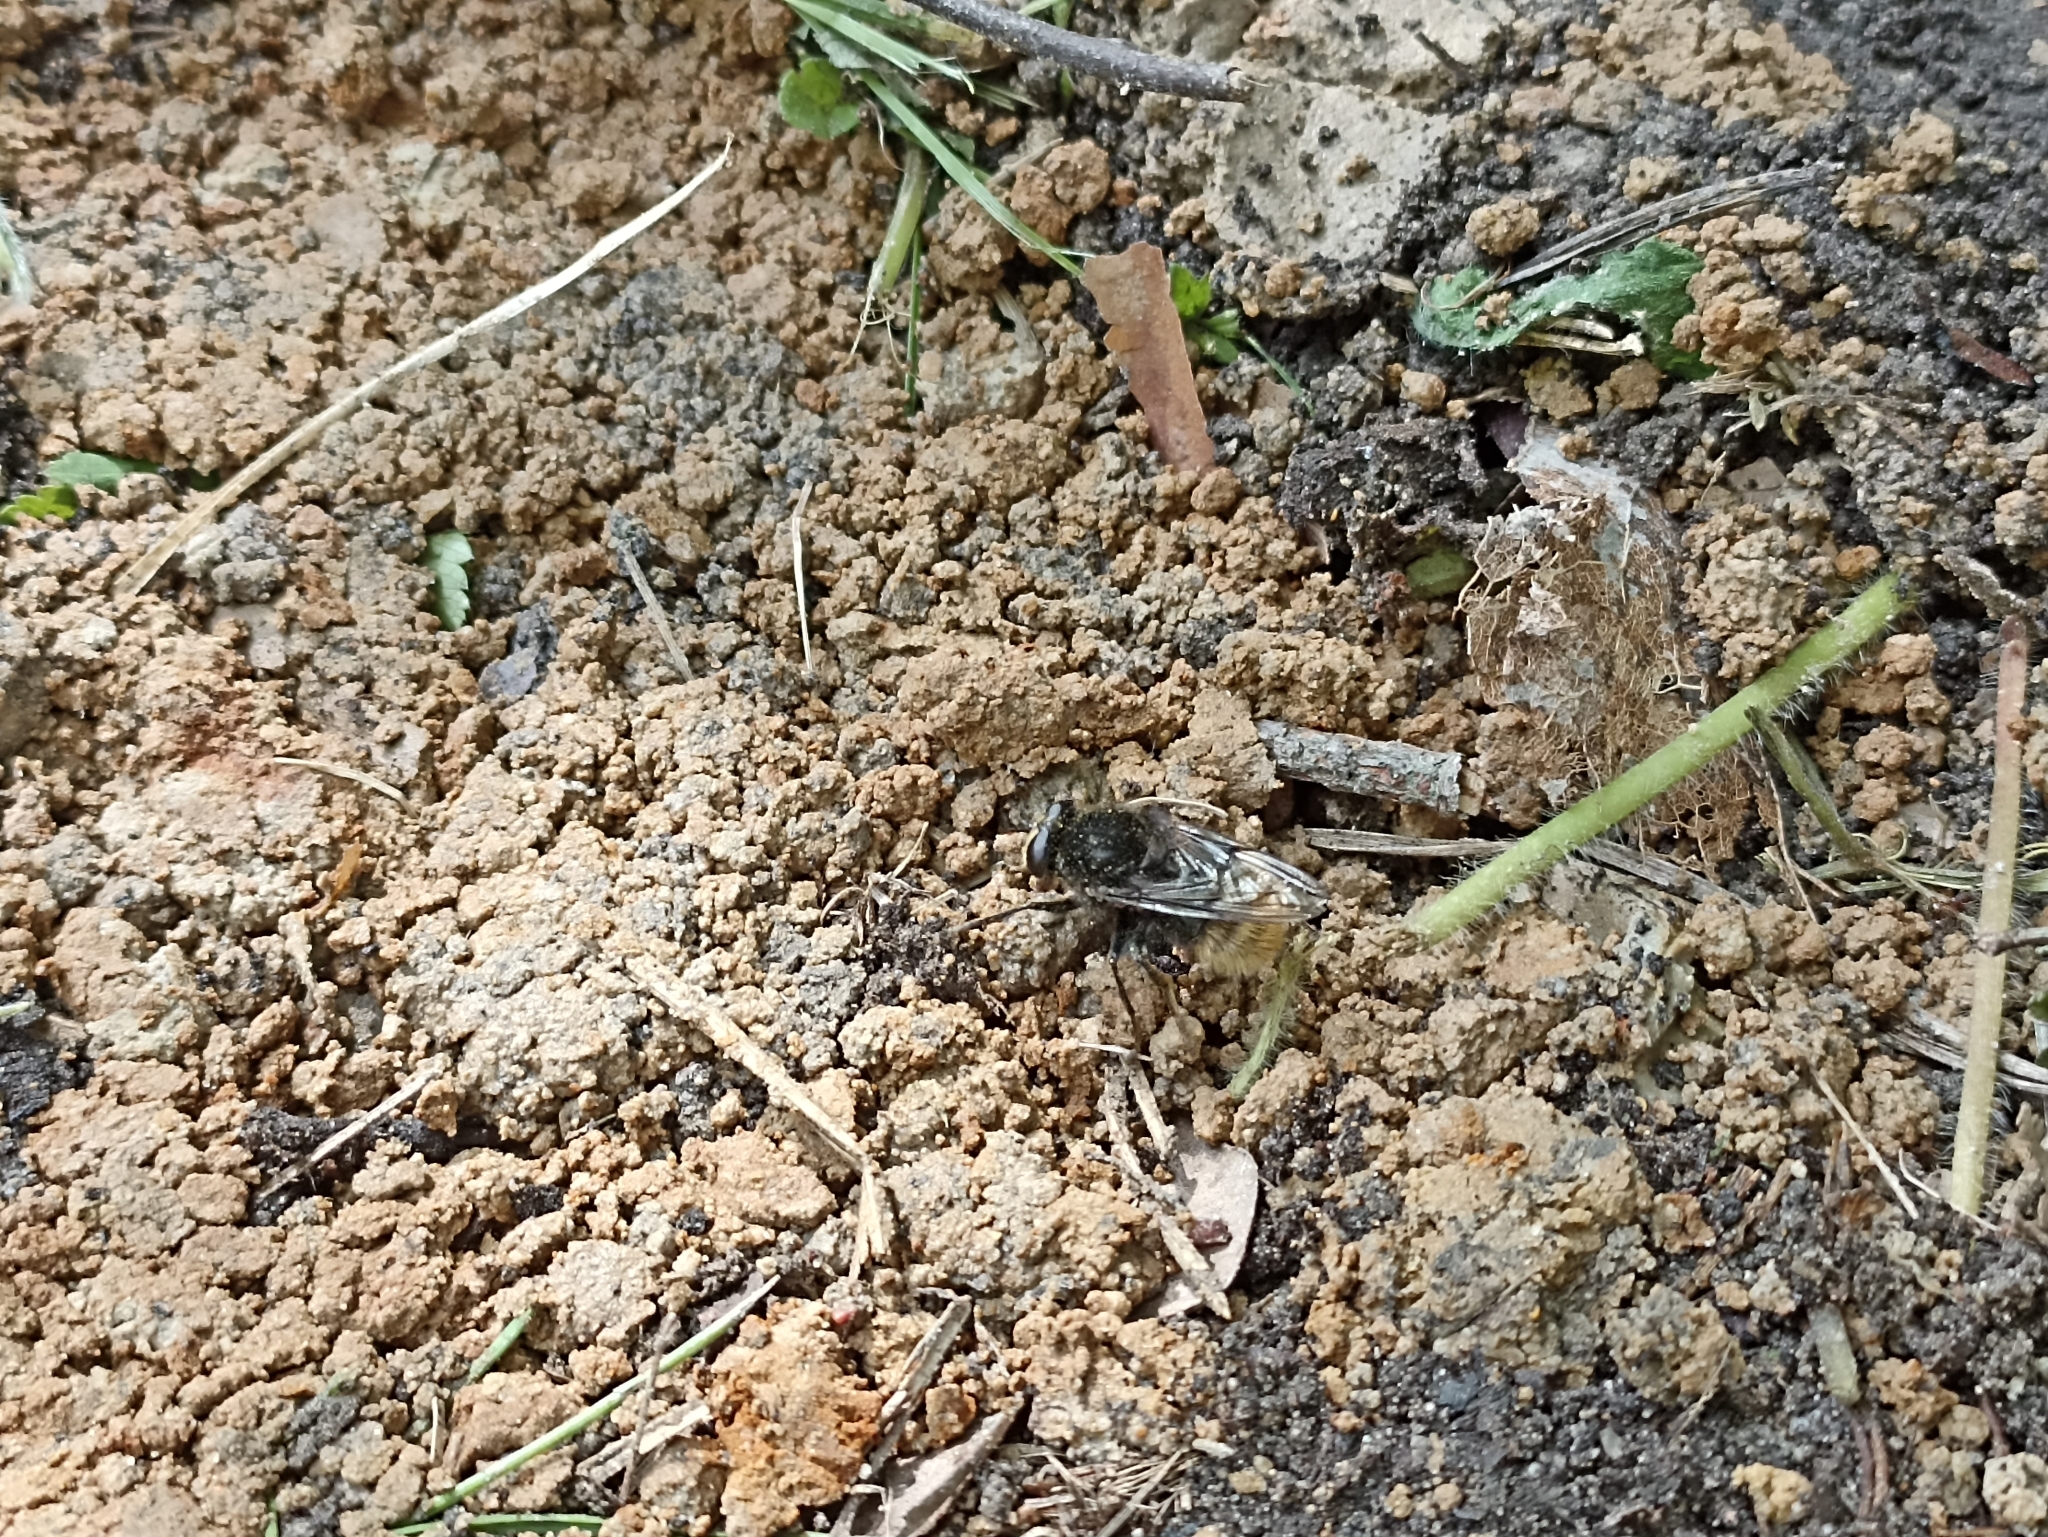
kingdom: Animalia
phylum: Arthropoda
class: Insecta
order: Diptera
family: Syrphidae
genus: Criorhina
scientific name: Criorhina ranunculi
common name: Large bear hoverfly
